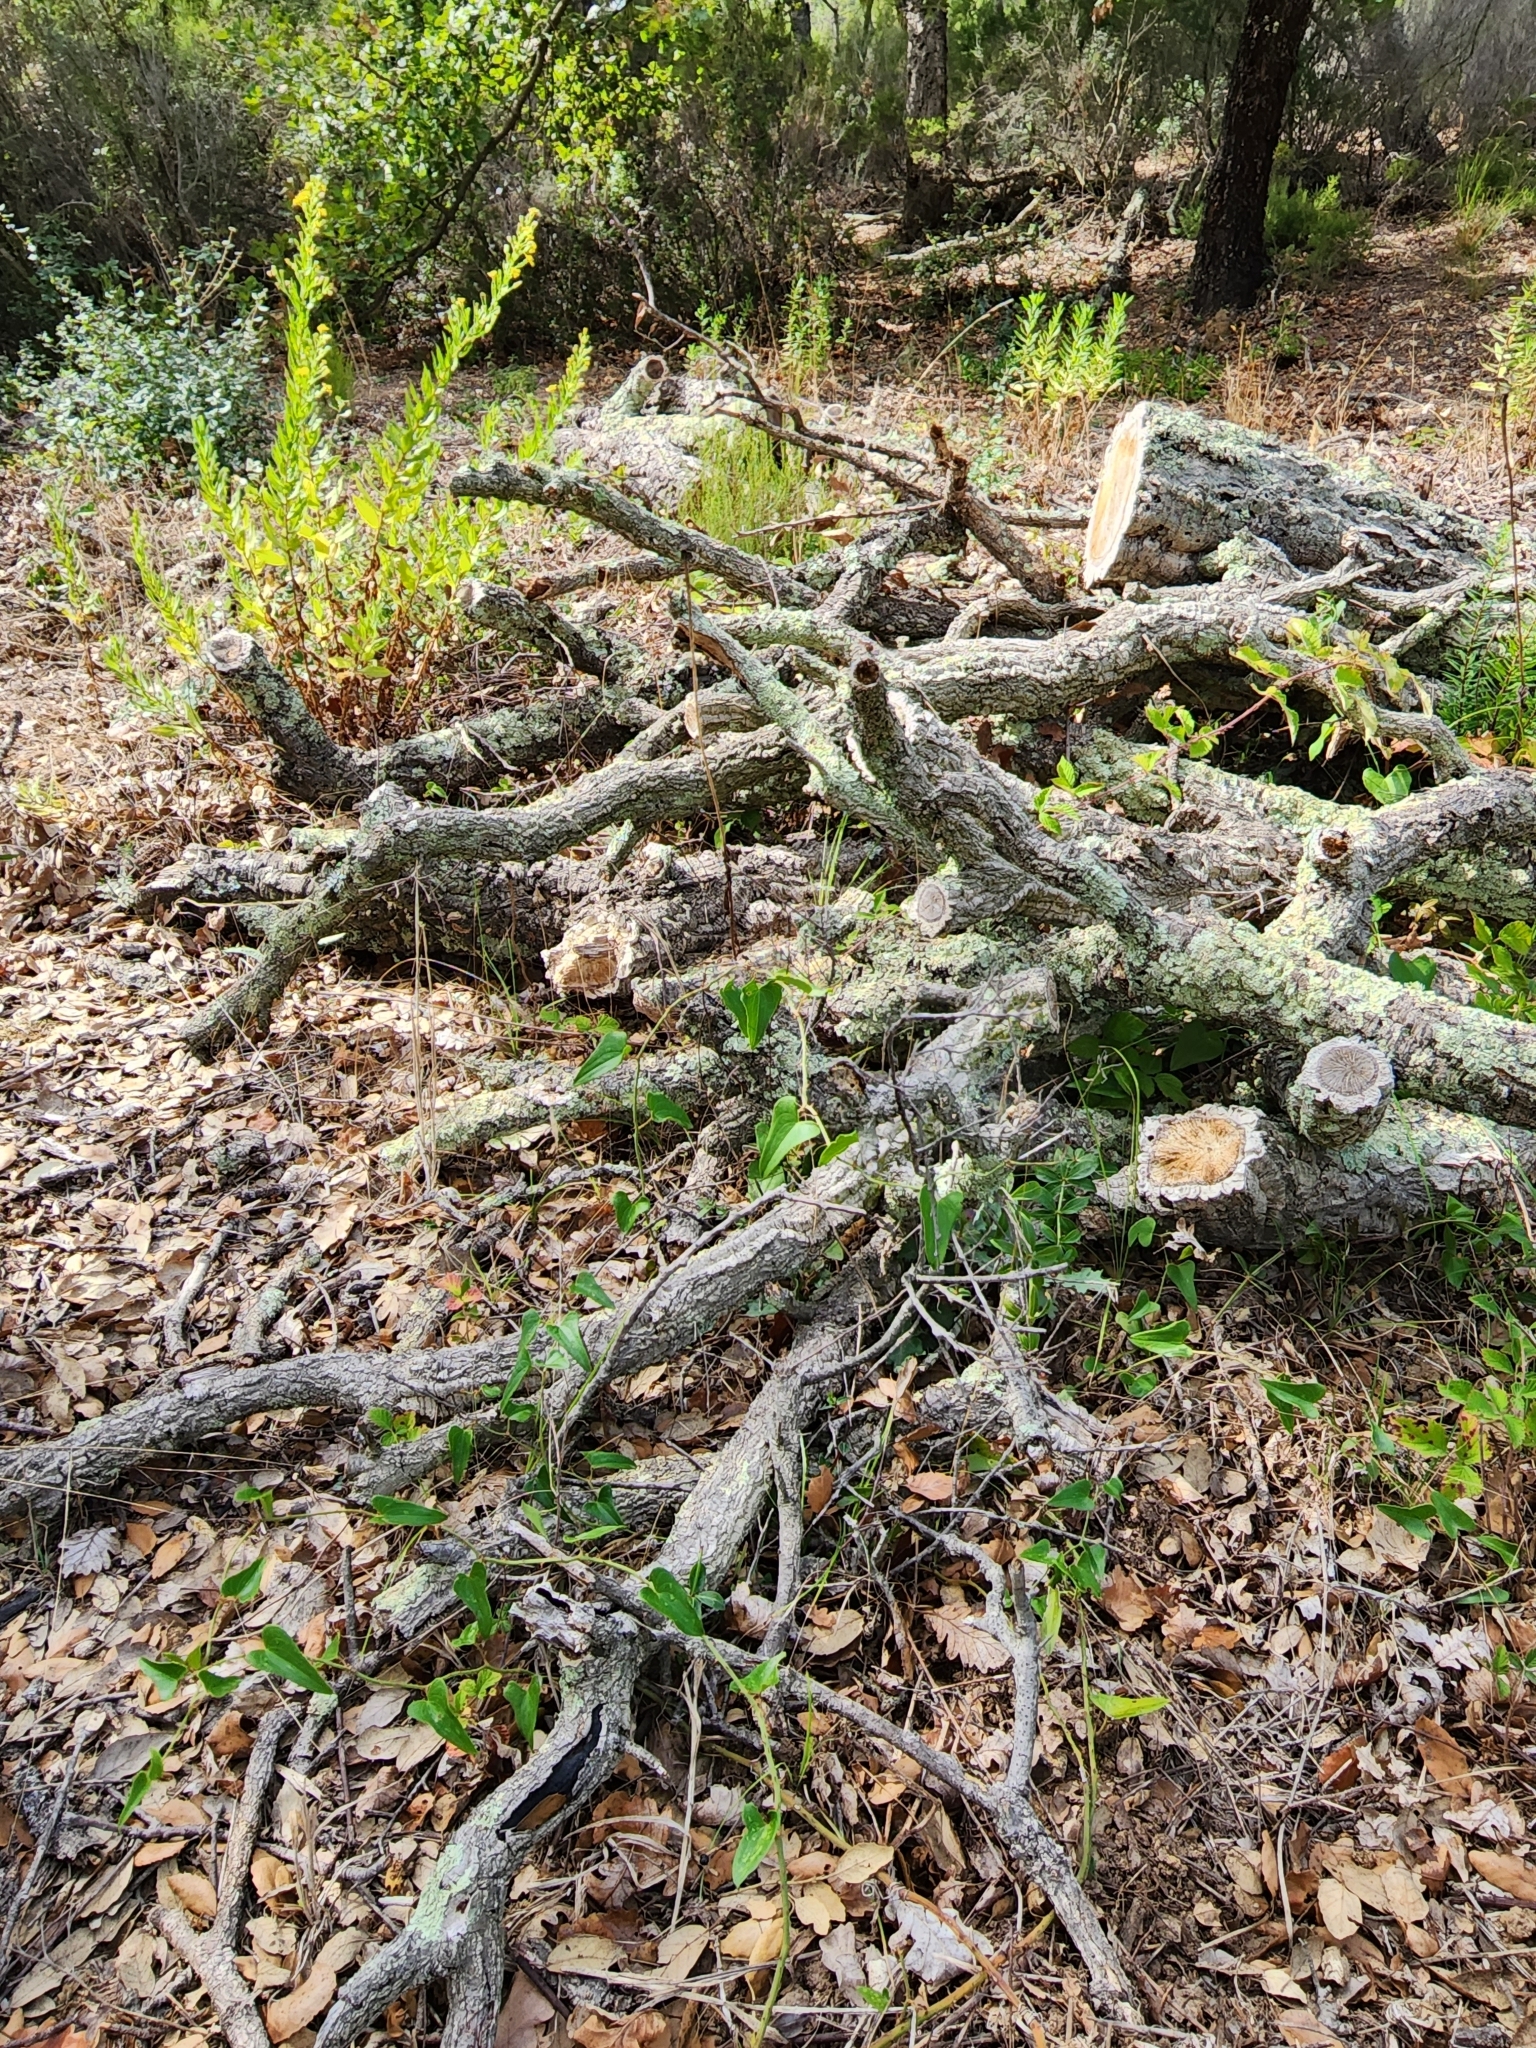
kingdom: Plantae
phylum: Tracheophyta
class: Liliopsida
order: Liliales
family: Smilacaceae
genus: Smilax
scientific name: Smilax aspera
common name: Common smilax
